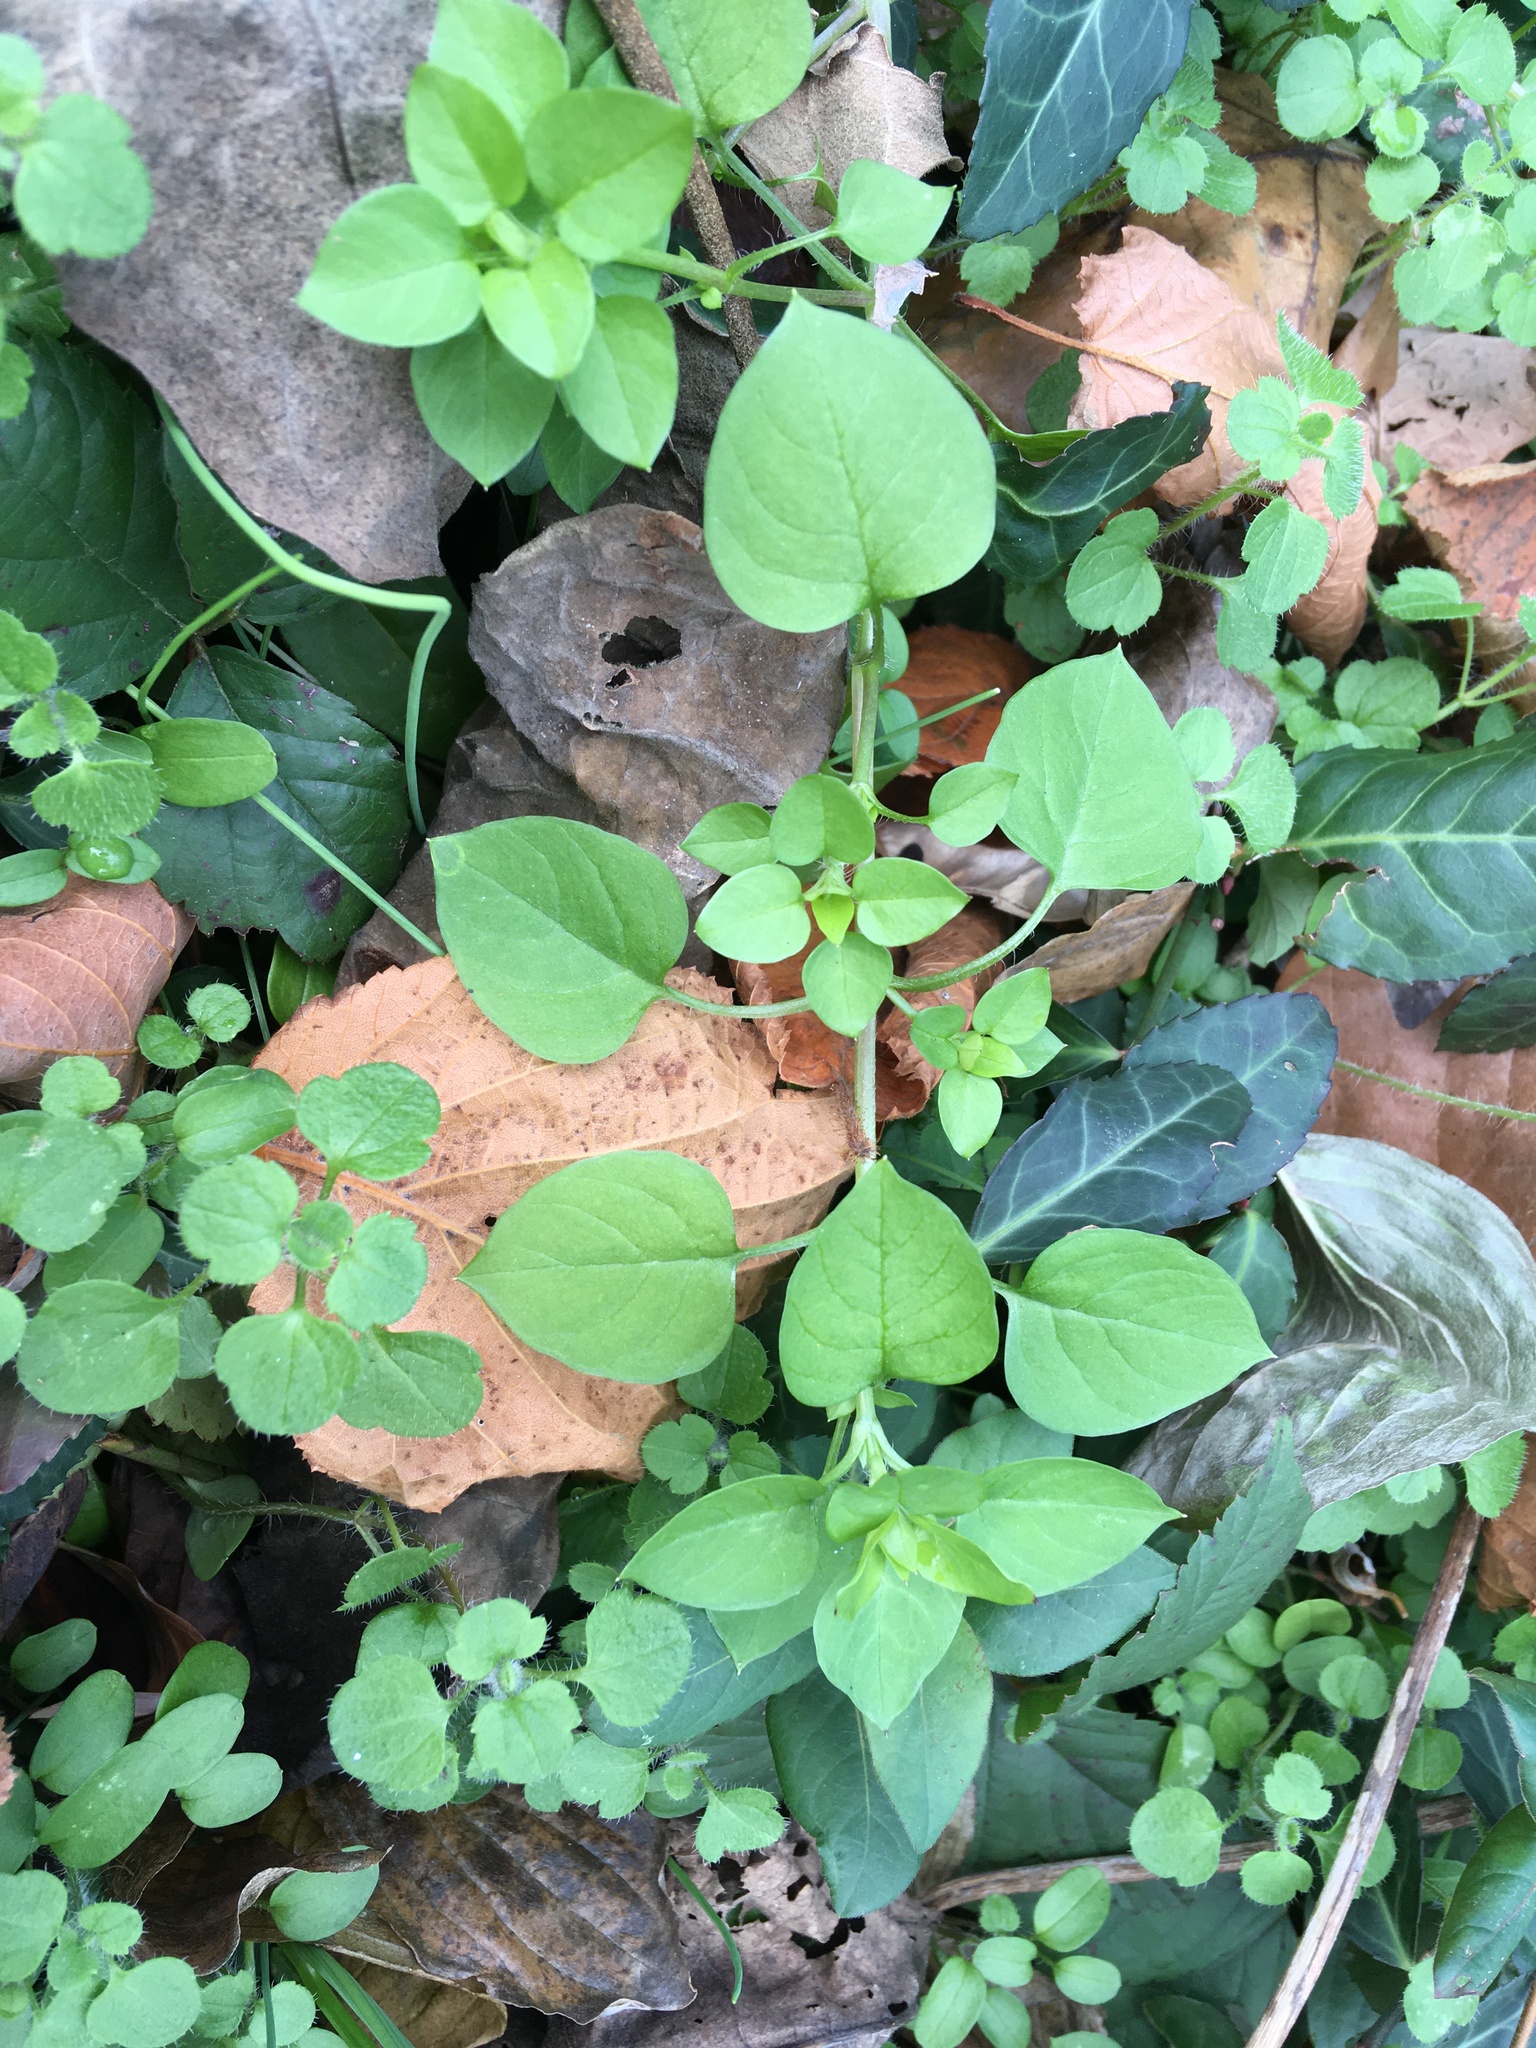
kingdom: Plantae
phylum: Tracheophyta
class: Magnoliopsida
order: Caryophyllales
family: Caryophyllaceae
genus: Stellaria
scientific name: Stellaria media
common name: Common chickweed
